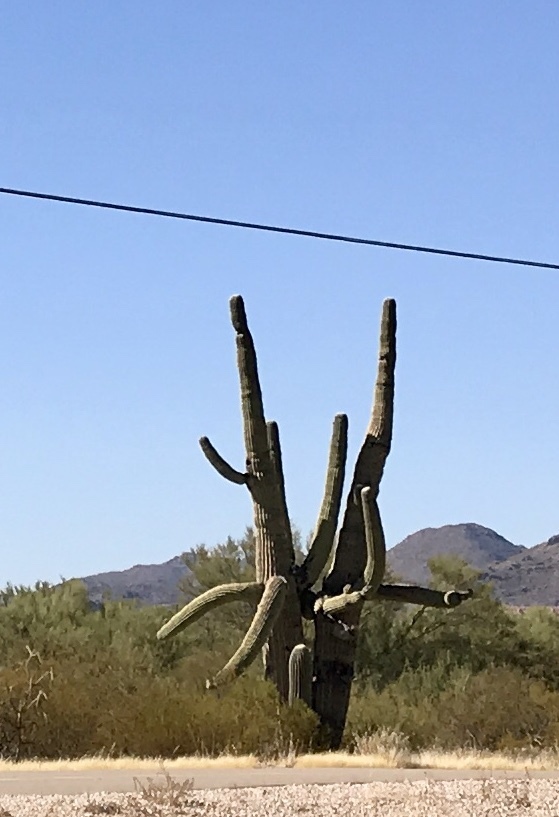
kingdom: Plantae
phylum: Tracheophyta
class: Magnoliopsida
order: Caryophyllales
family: Cactaceae
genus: Carnegiea
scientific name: Carnegiea gigantea
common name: Saguaro
